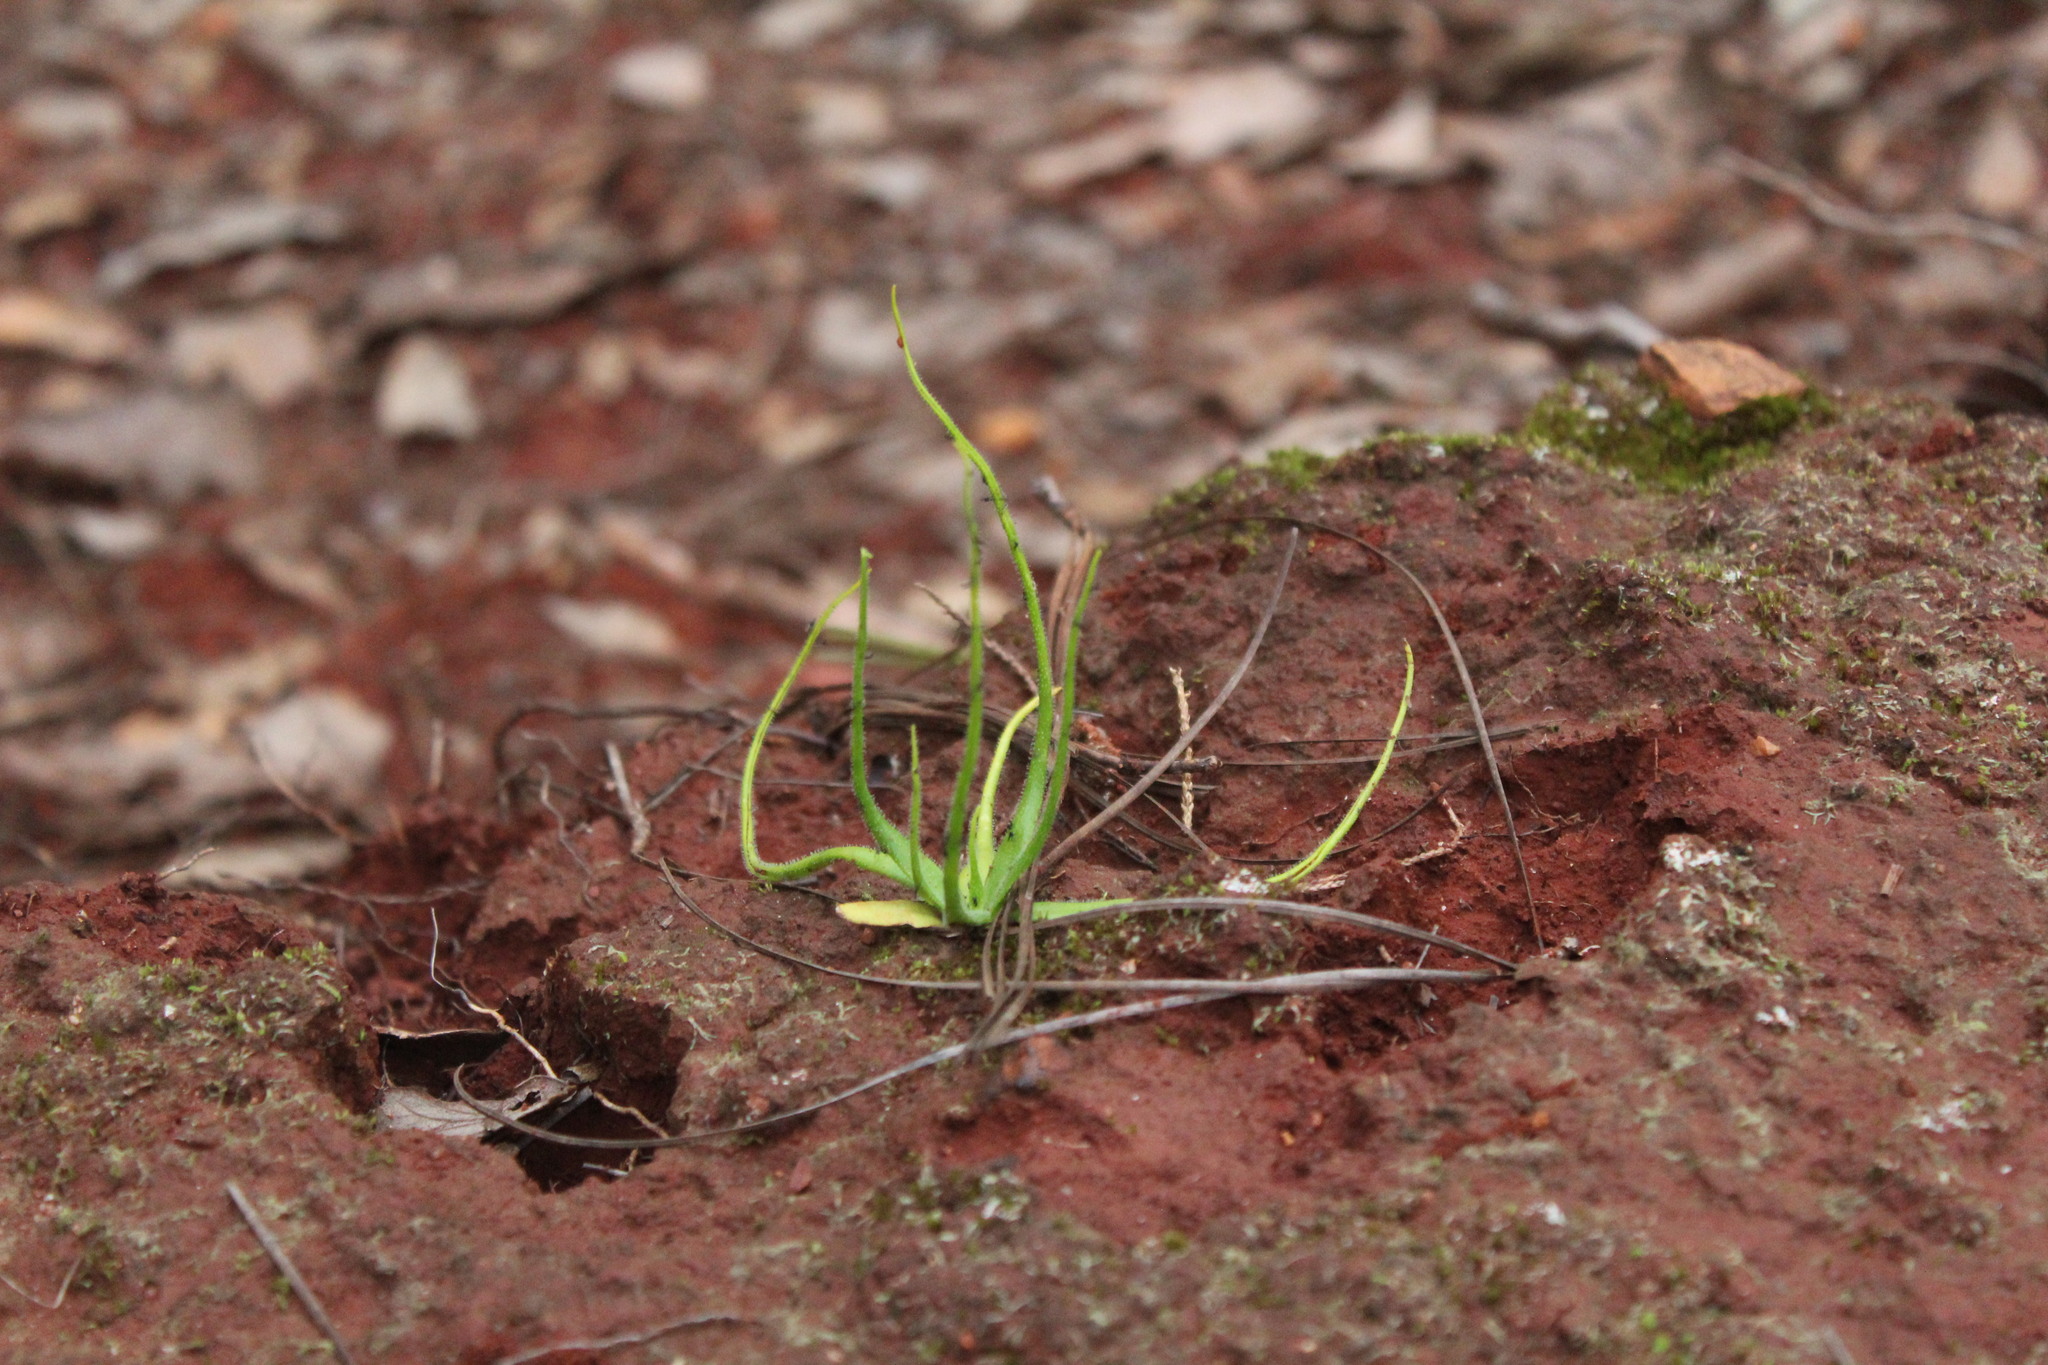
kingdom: Plantae
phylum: Tracheophyta
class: Magnoliopsida
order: Lamiales
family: Lentibulariaceae
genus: Pinguicula
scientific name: Pinguicula heterophylla
